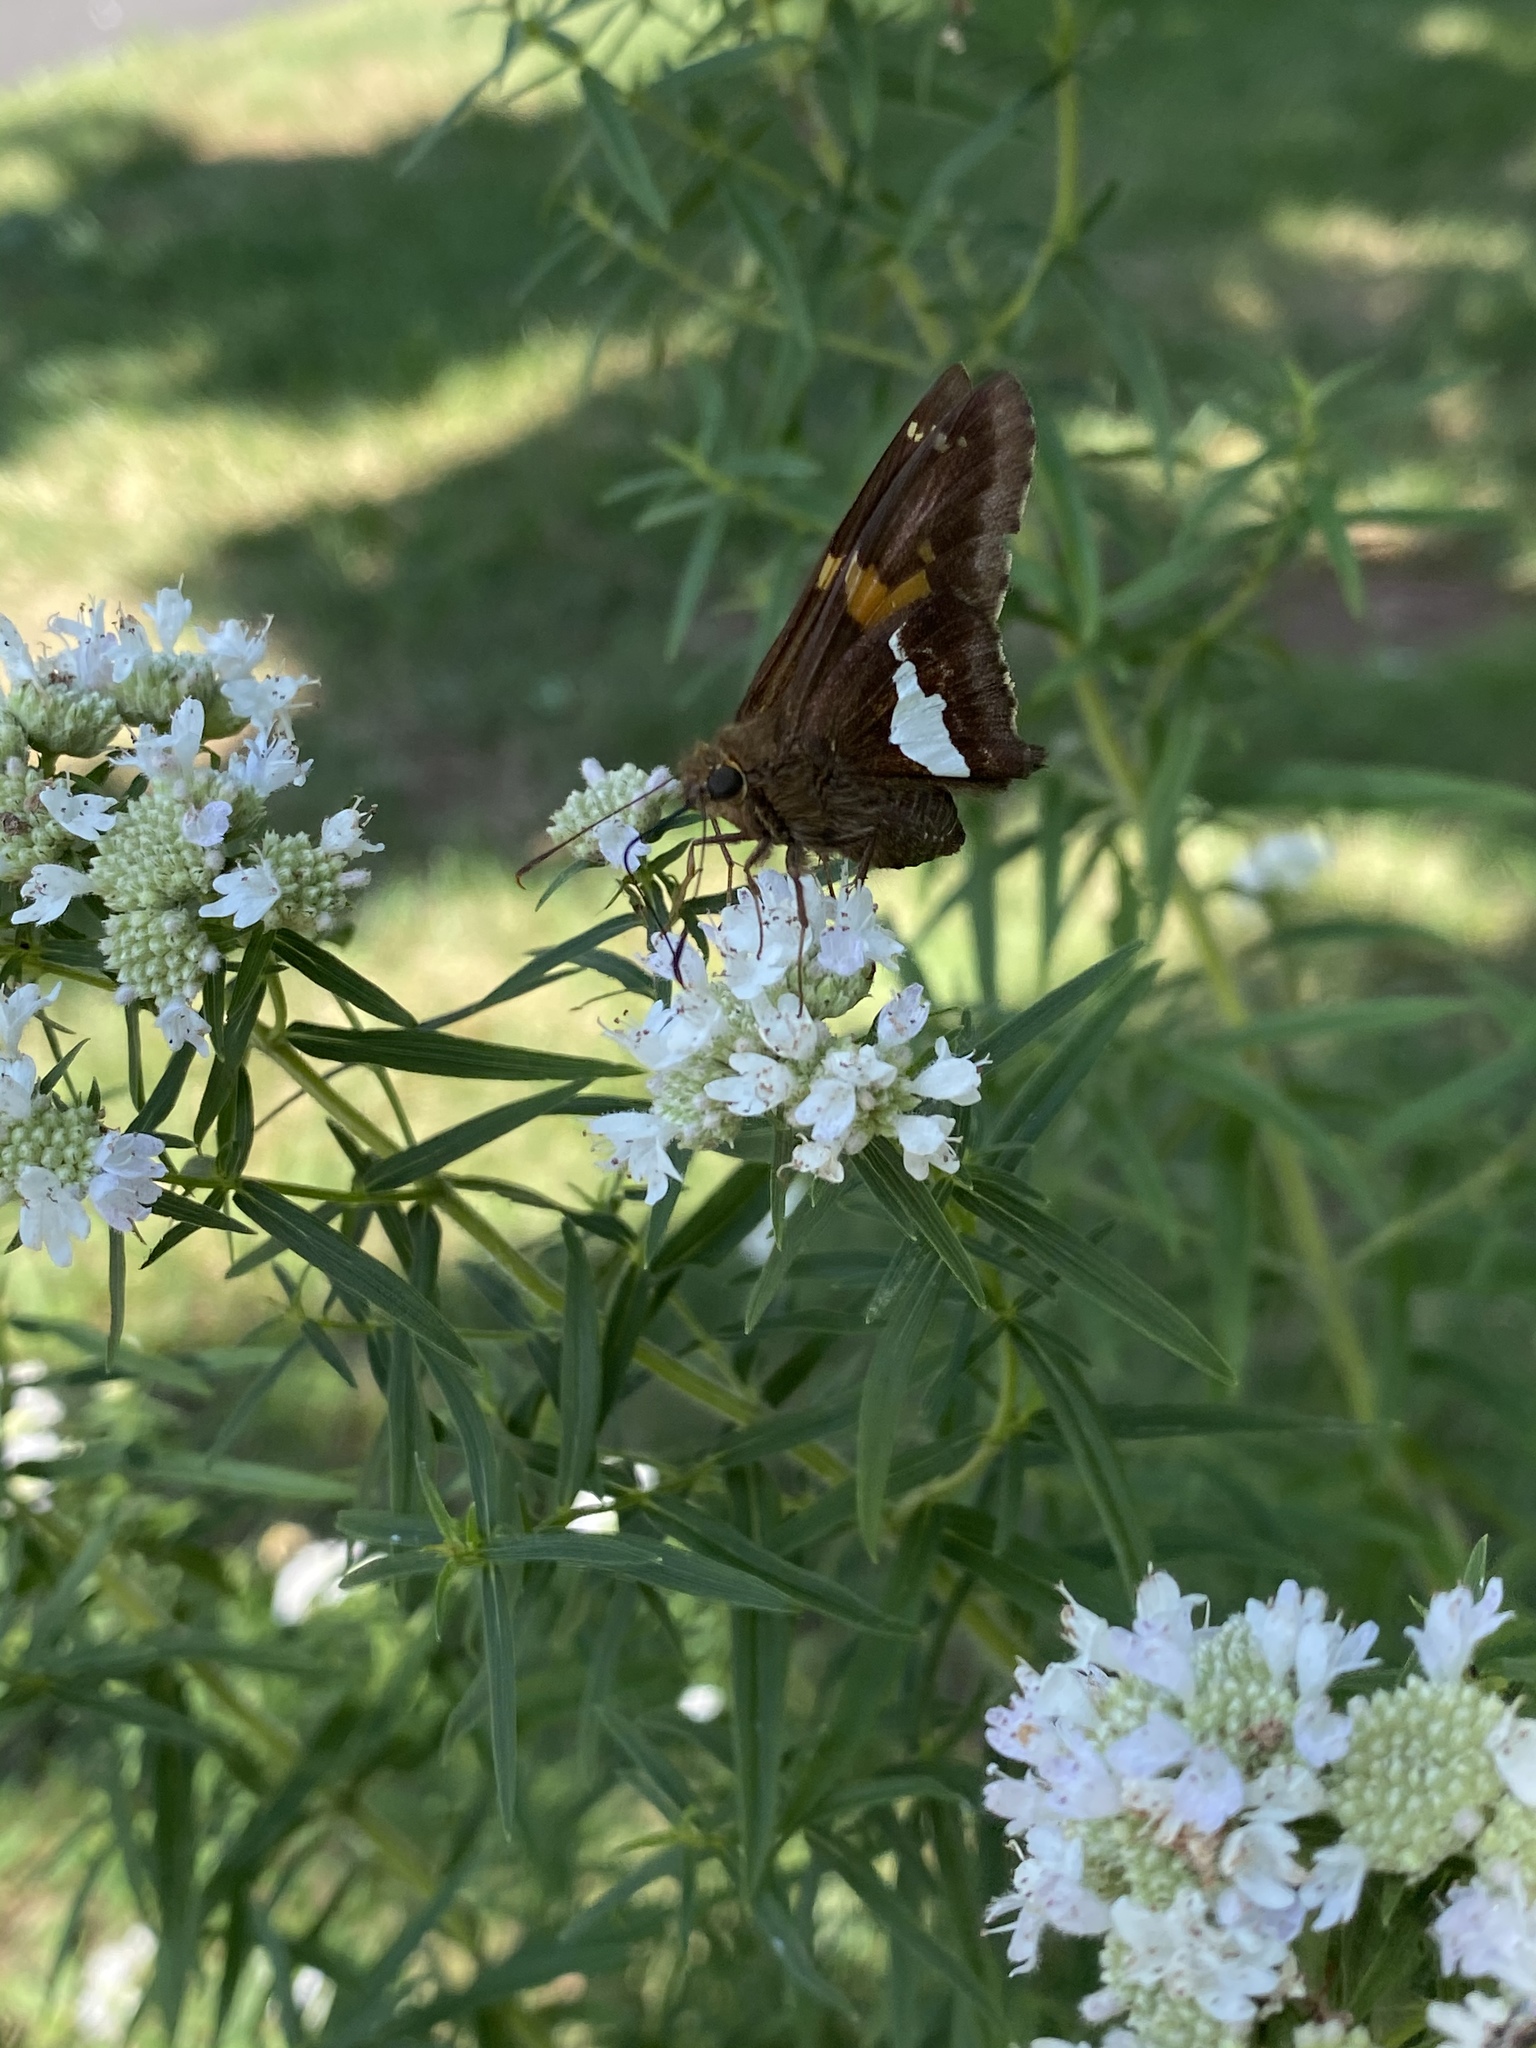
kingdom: Animalia
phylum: Arthropoda
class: Insecta
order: Lepidoptera
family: Hesperiidae
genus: Epargyreus
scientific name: Epargyreus clarus
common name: Silver-spotted skipper
